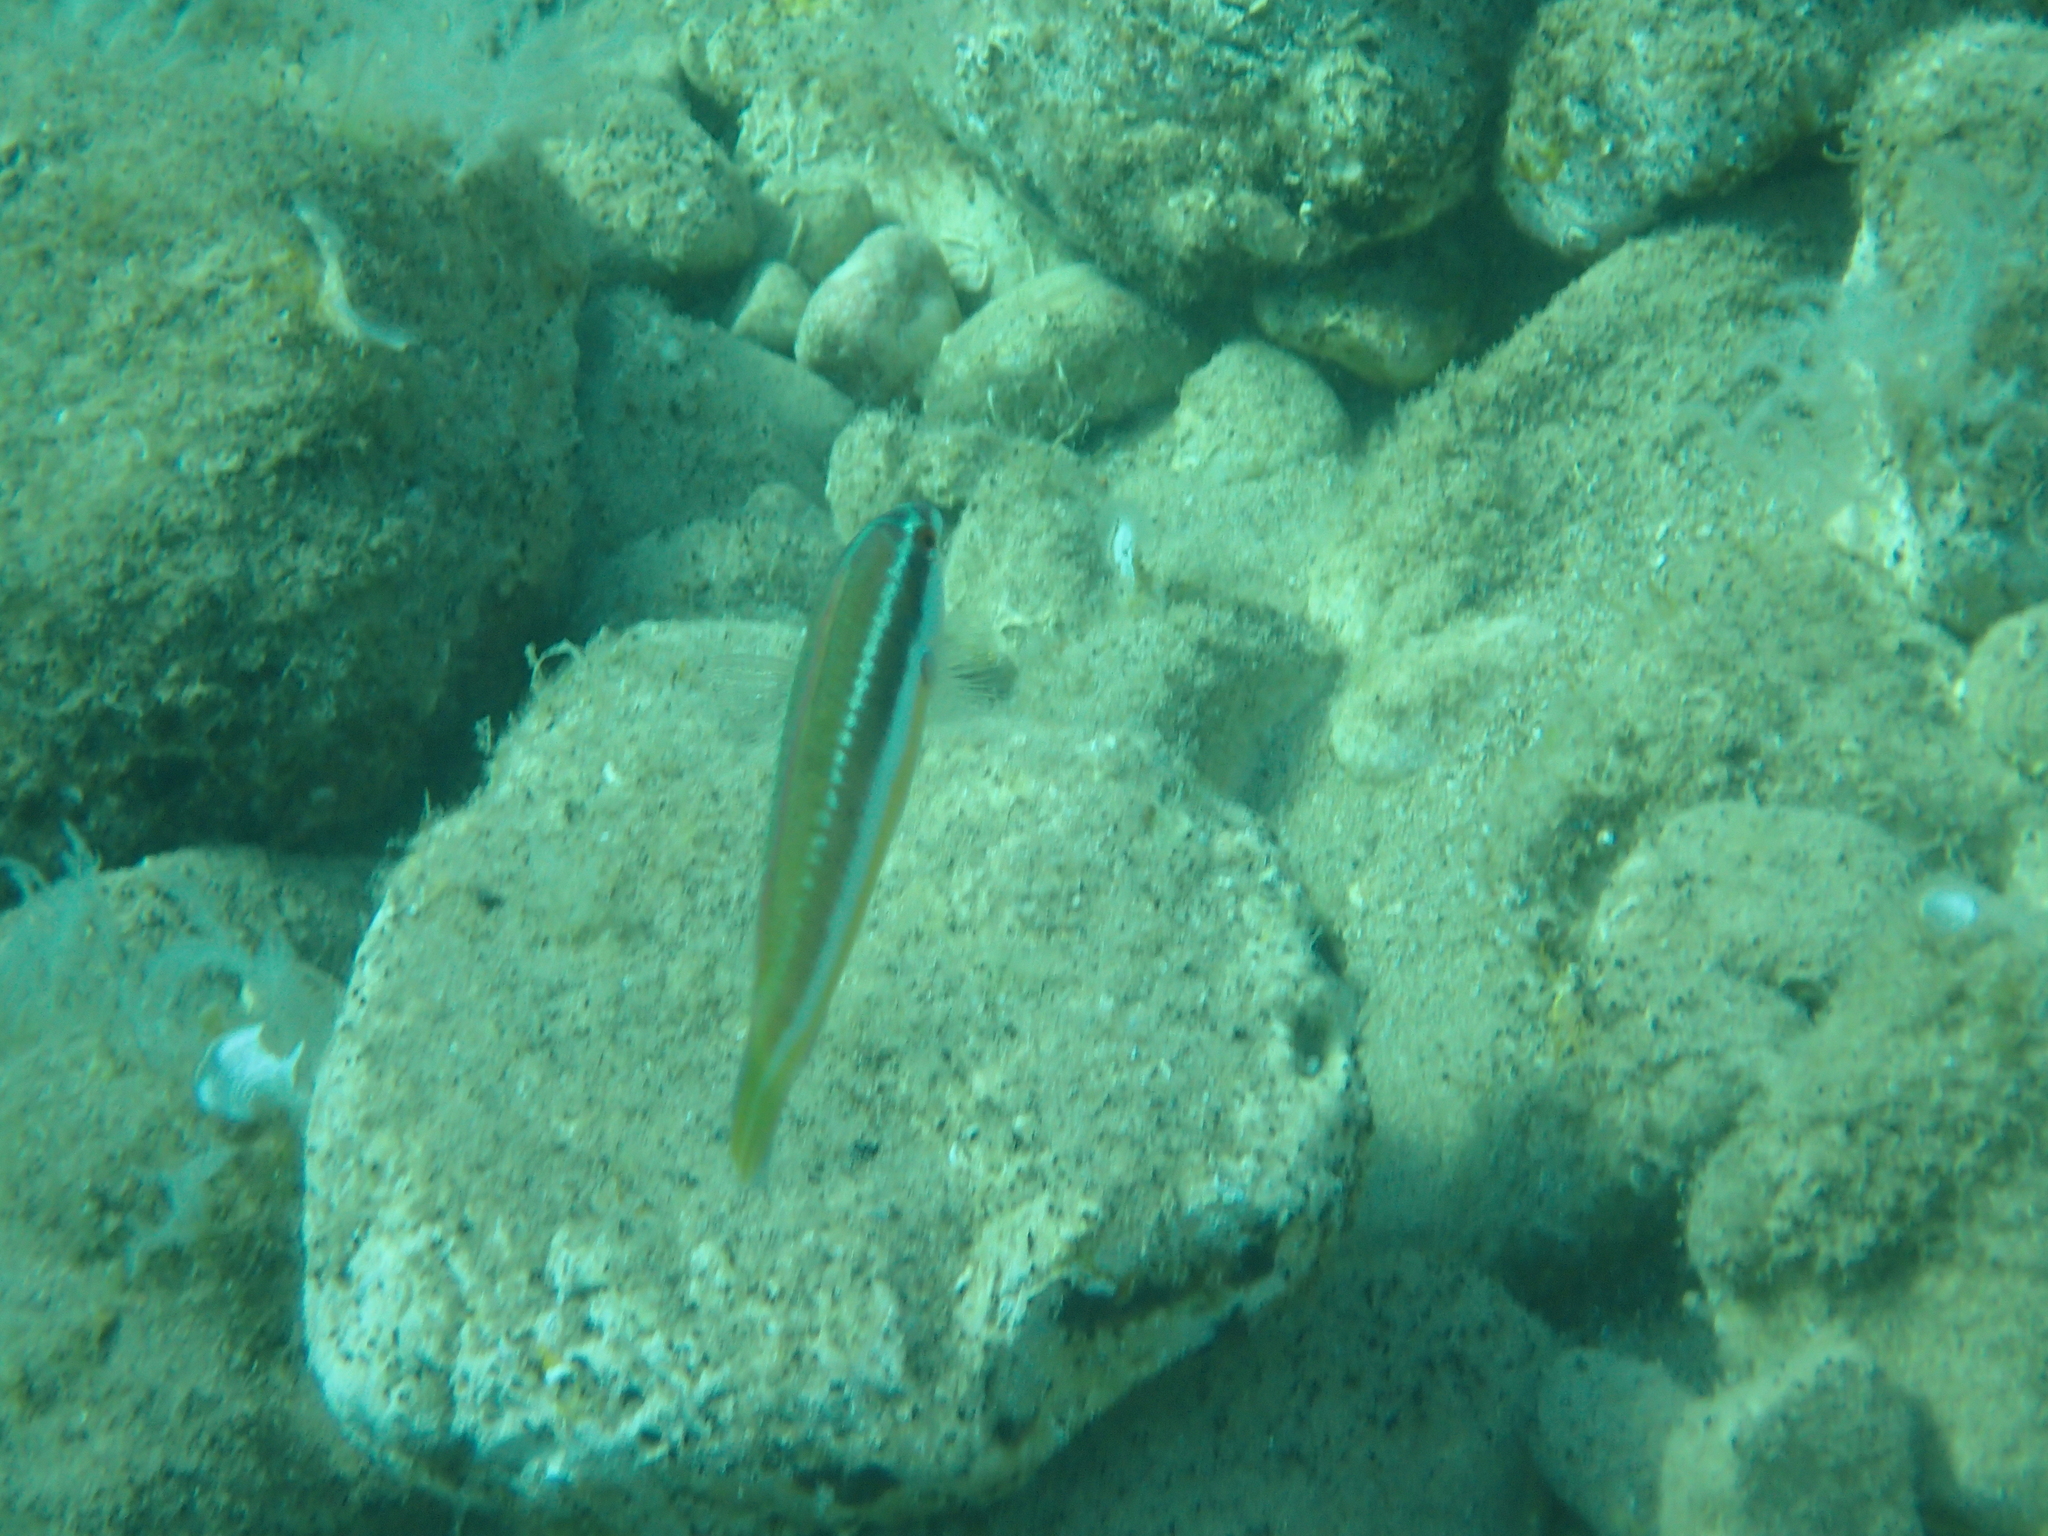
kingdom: Animalia
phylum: Chordata
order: Perciformes
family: Labridae
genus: Coris
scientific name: Coris julis
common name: Rainbow wrasse
